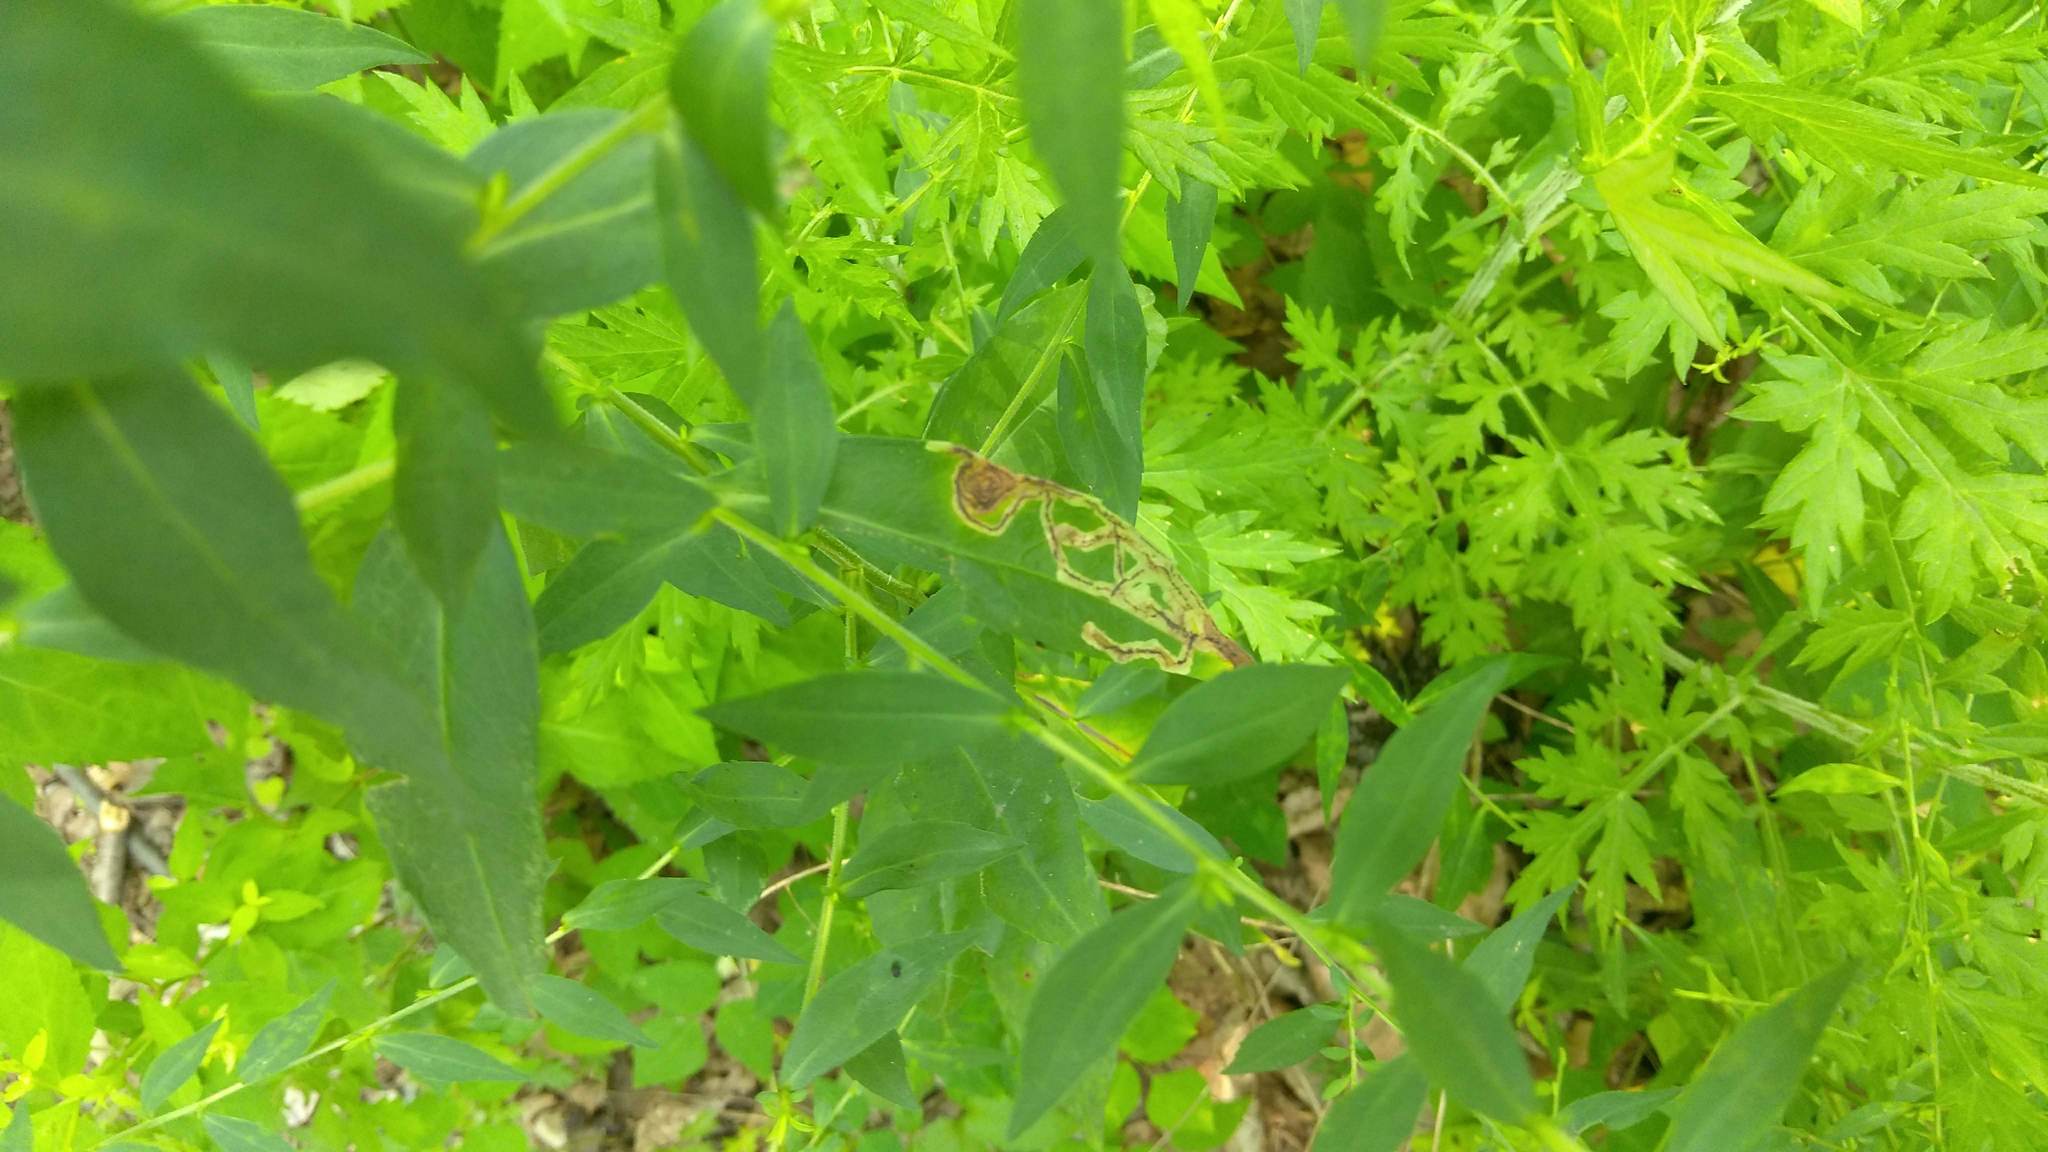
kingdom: Animalia
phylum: Arthropoda
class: Insecta
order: Diptera
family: Agromyzidae
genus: Liriomyza
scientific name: Liriomyza eupatorii
